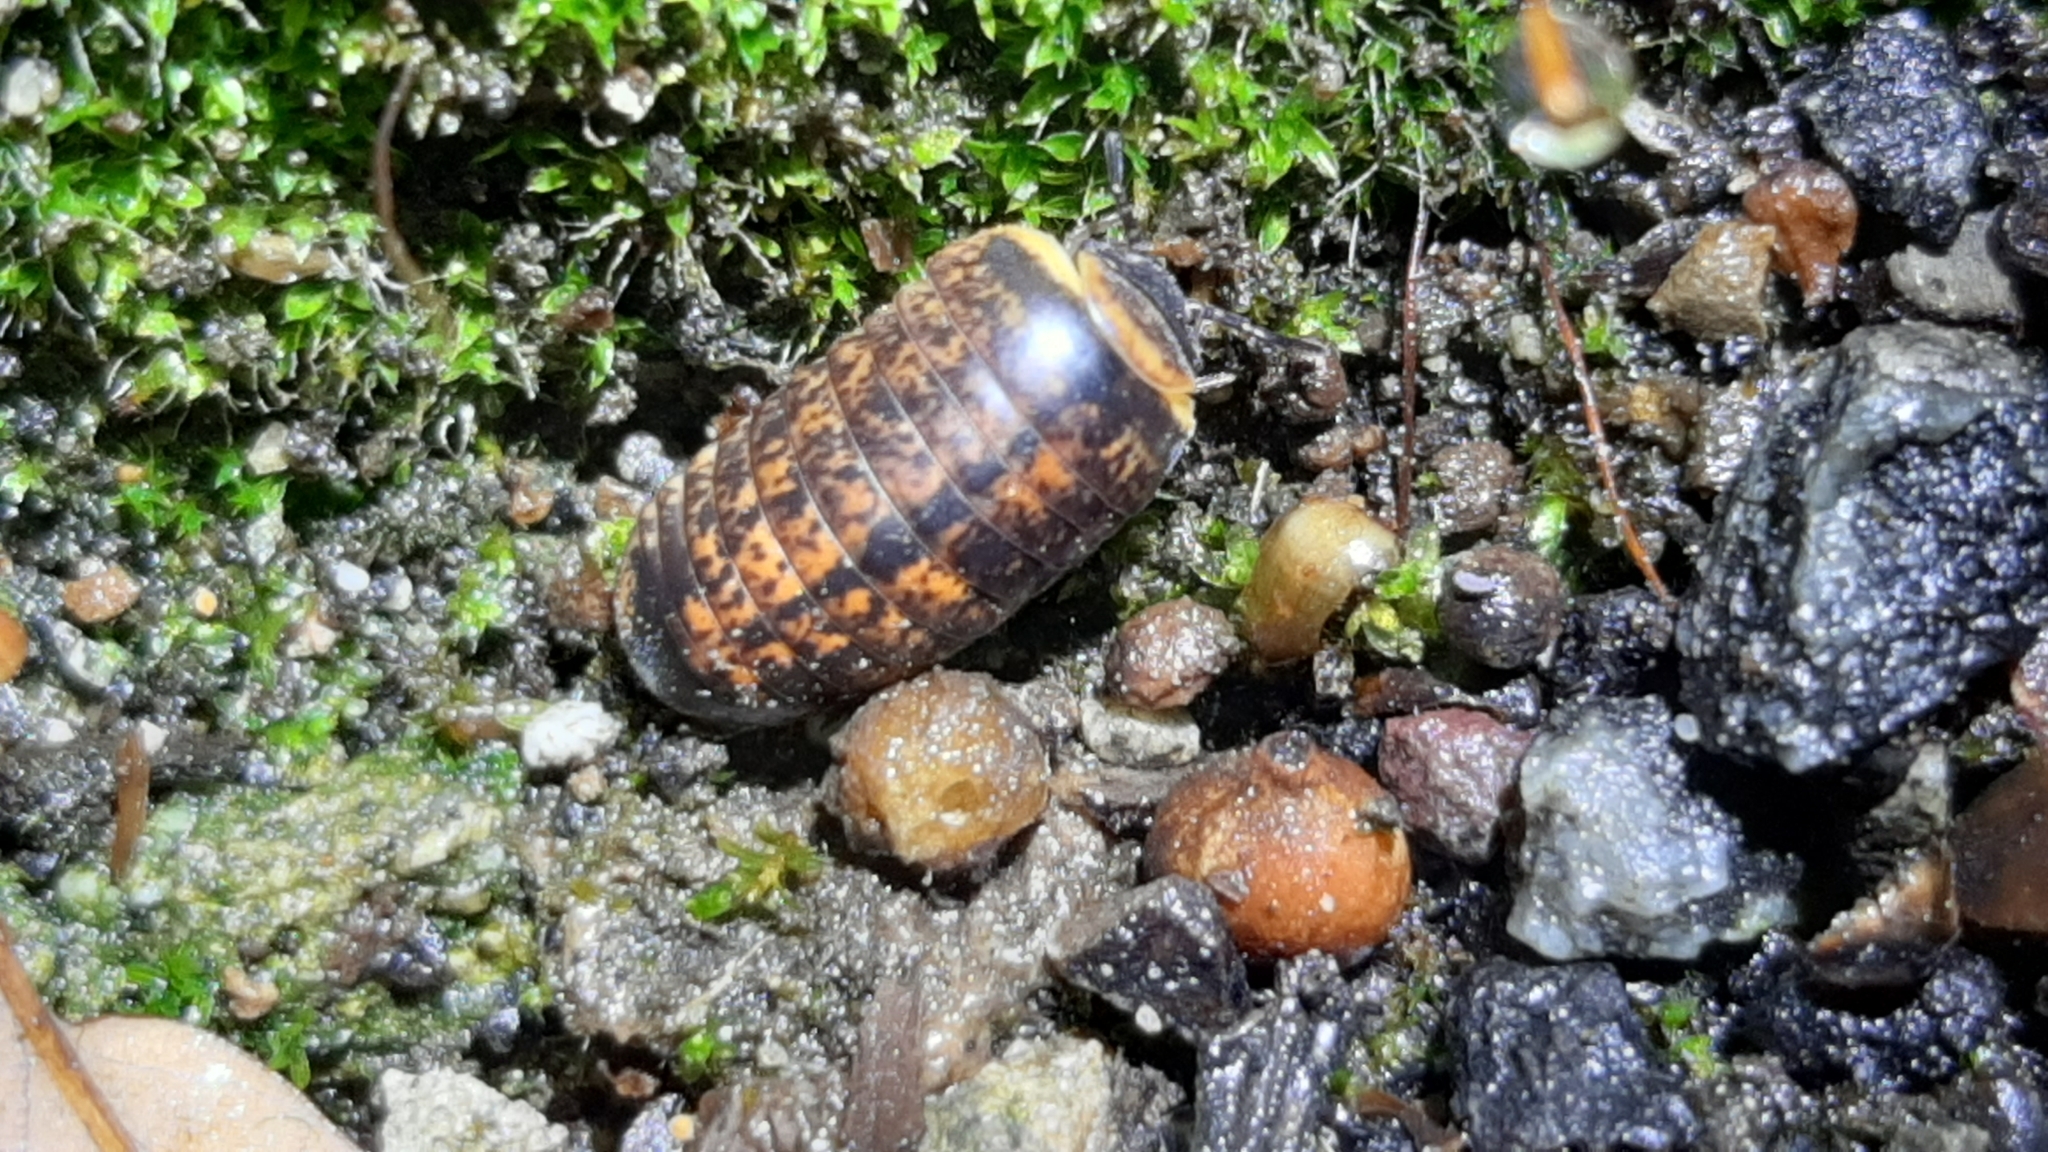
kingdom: Animalia
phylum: Arthropoda
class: Diplopoda
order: Glomerida
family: Glomeridae
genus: Glomeris
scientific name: Glomeris klugii
